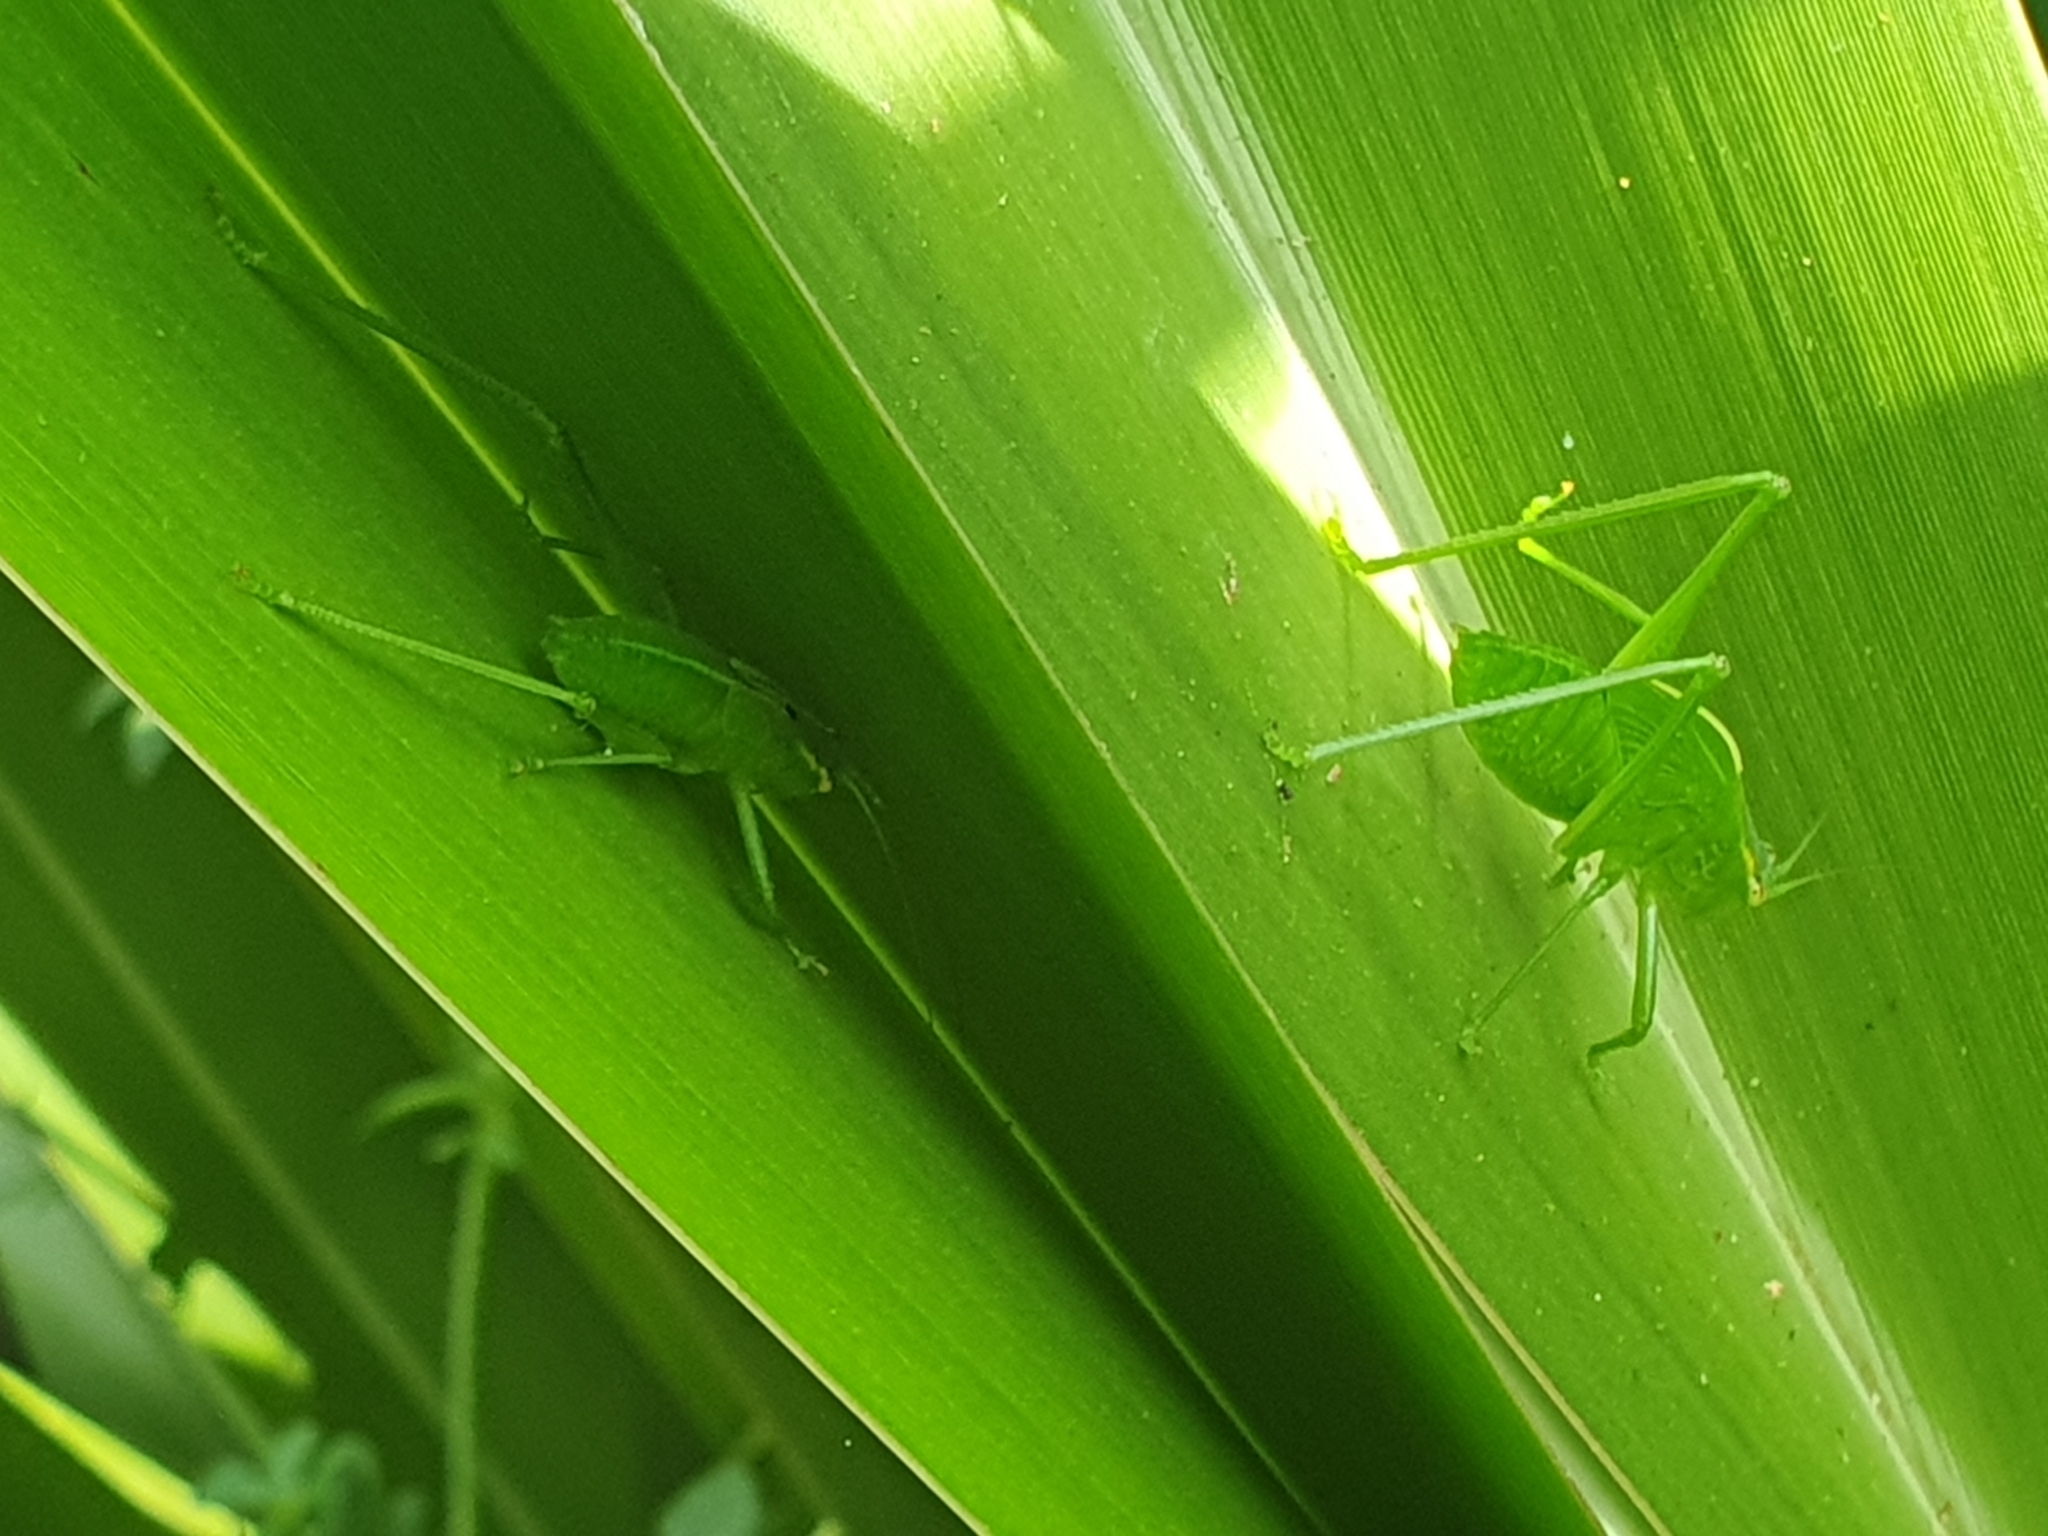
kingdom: Animalia
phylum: Arthropoda
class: Insecta
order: Orthoptera
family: Tettigoniidae
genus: Caedicia
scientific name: Caedicia simplex
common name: Common garden katydid
